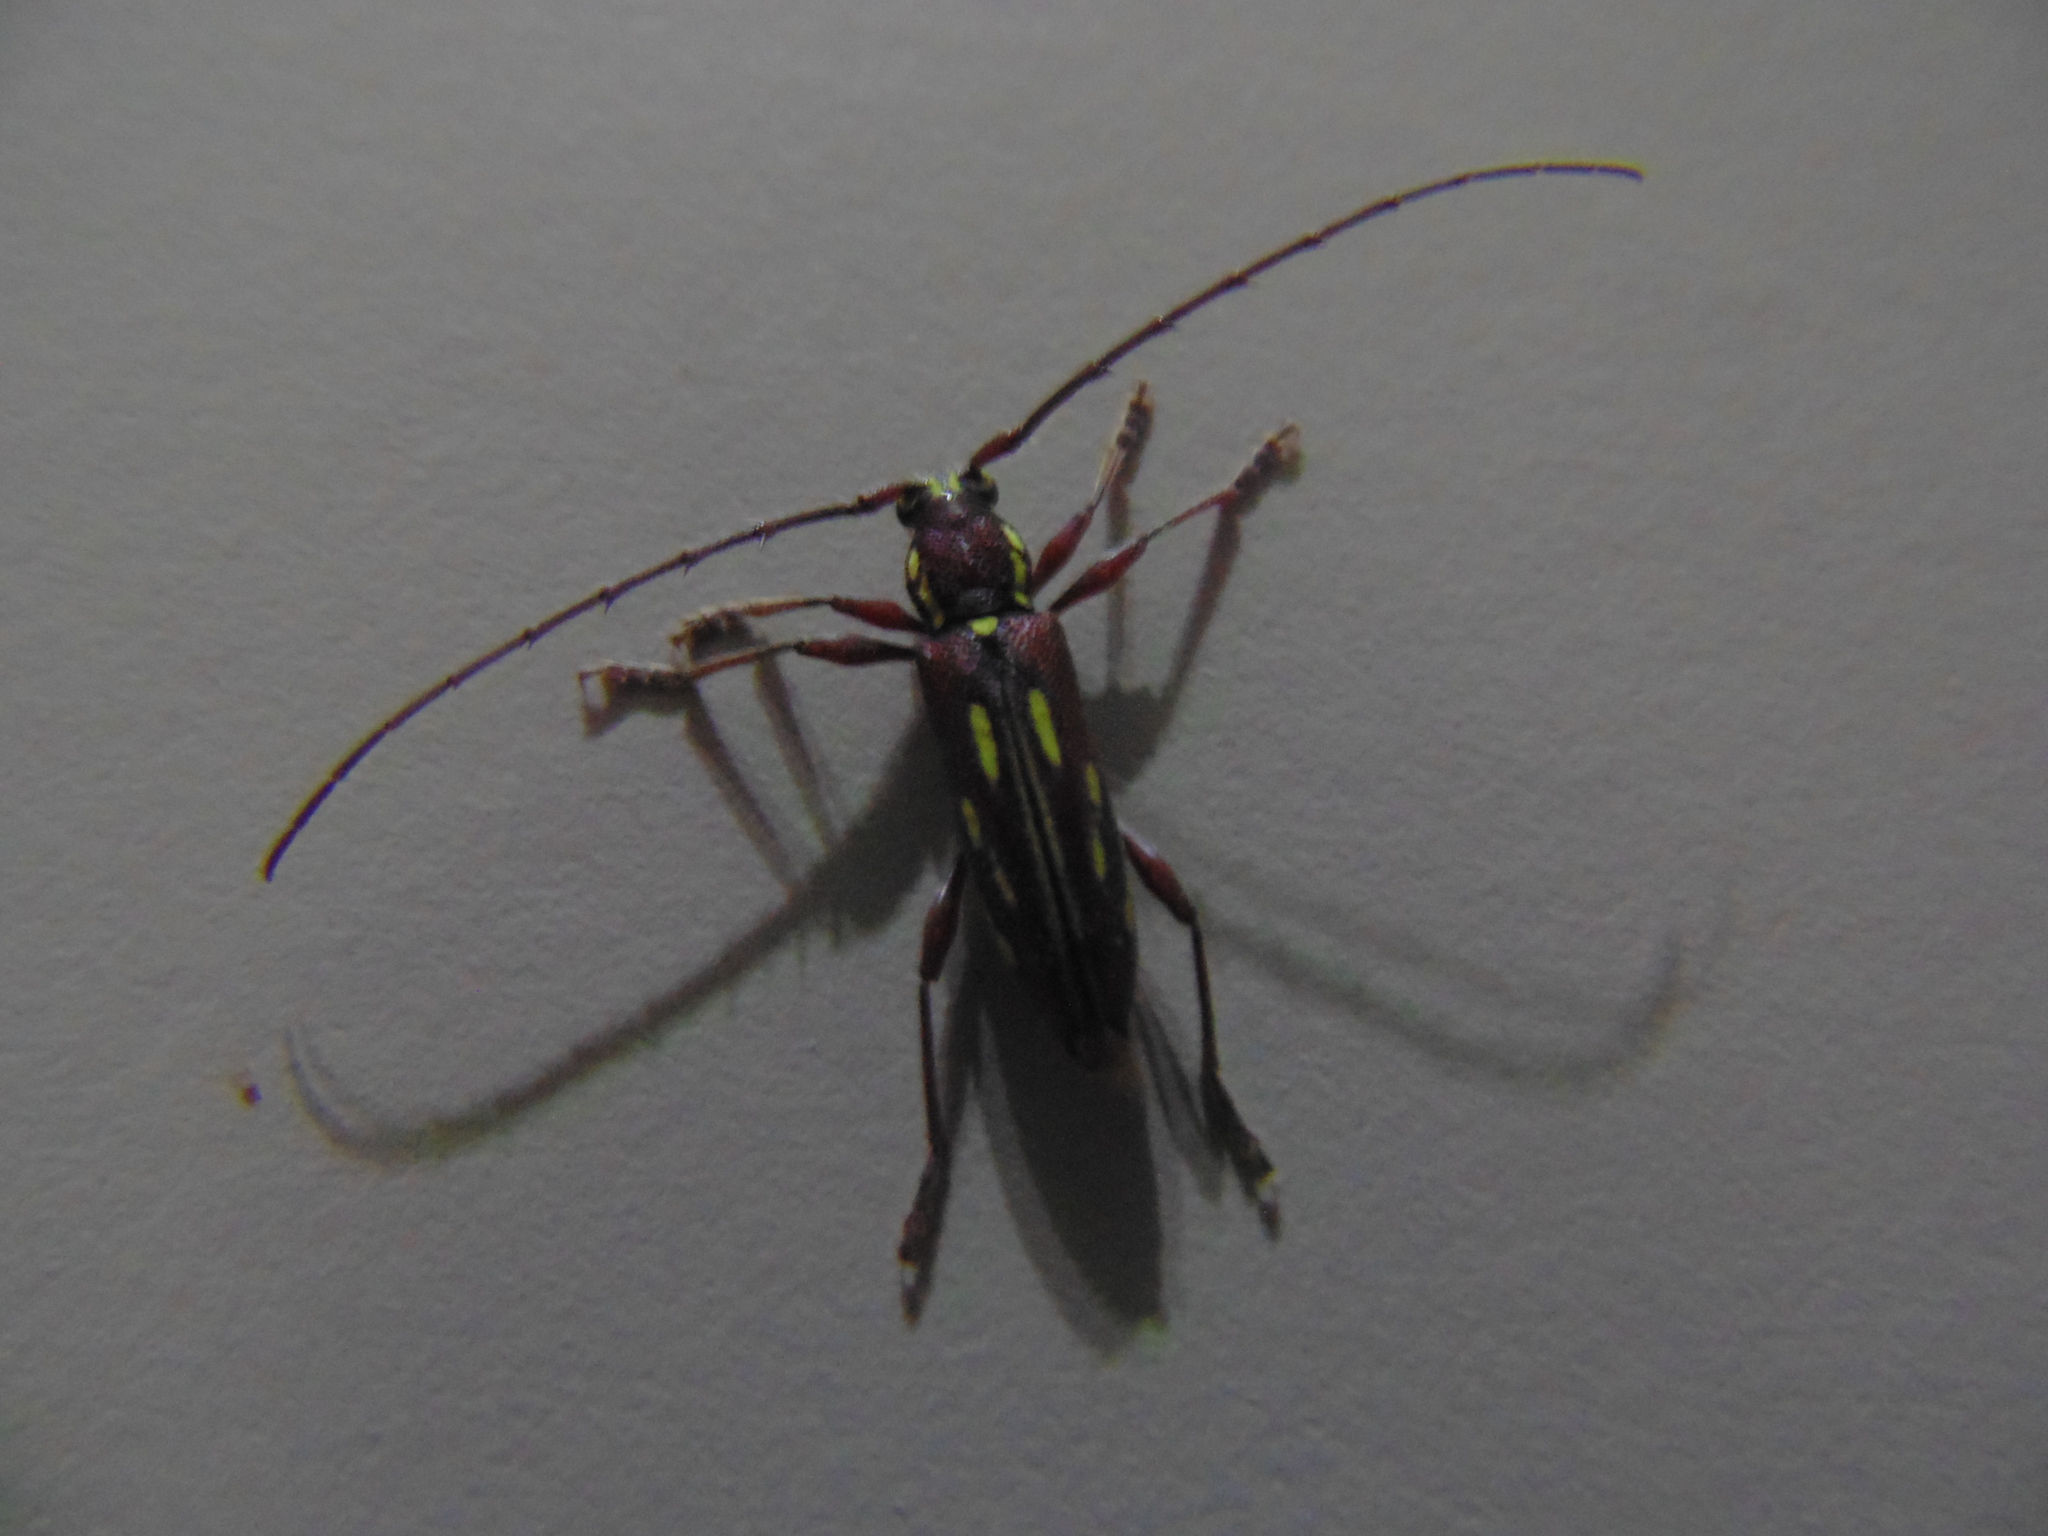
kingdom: Animalia
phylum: Arthropoda
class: Insecta
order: Coleoptera
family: Cerambycidae
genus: Ambonus
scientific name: Ambonus distinctus
